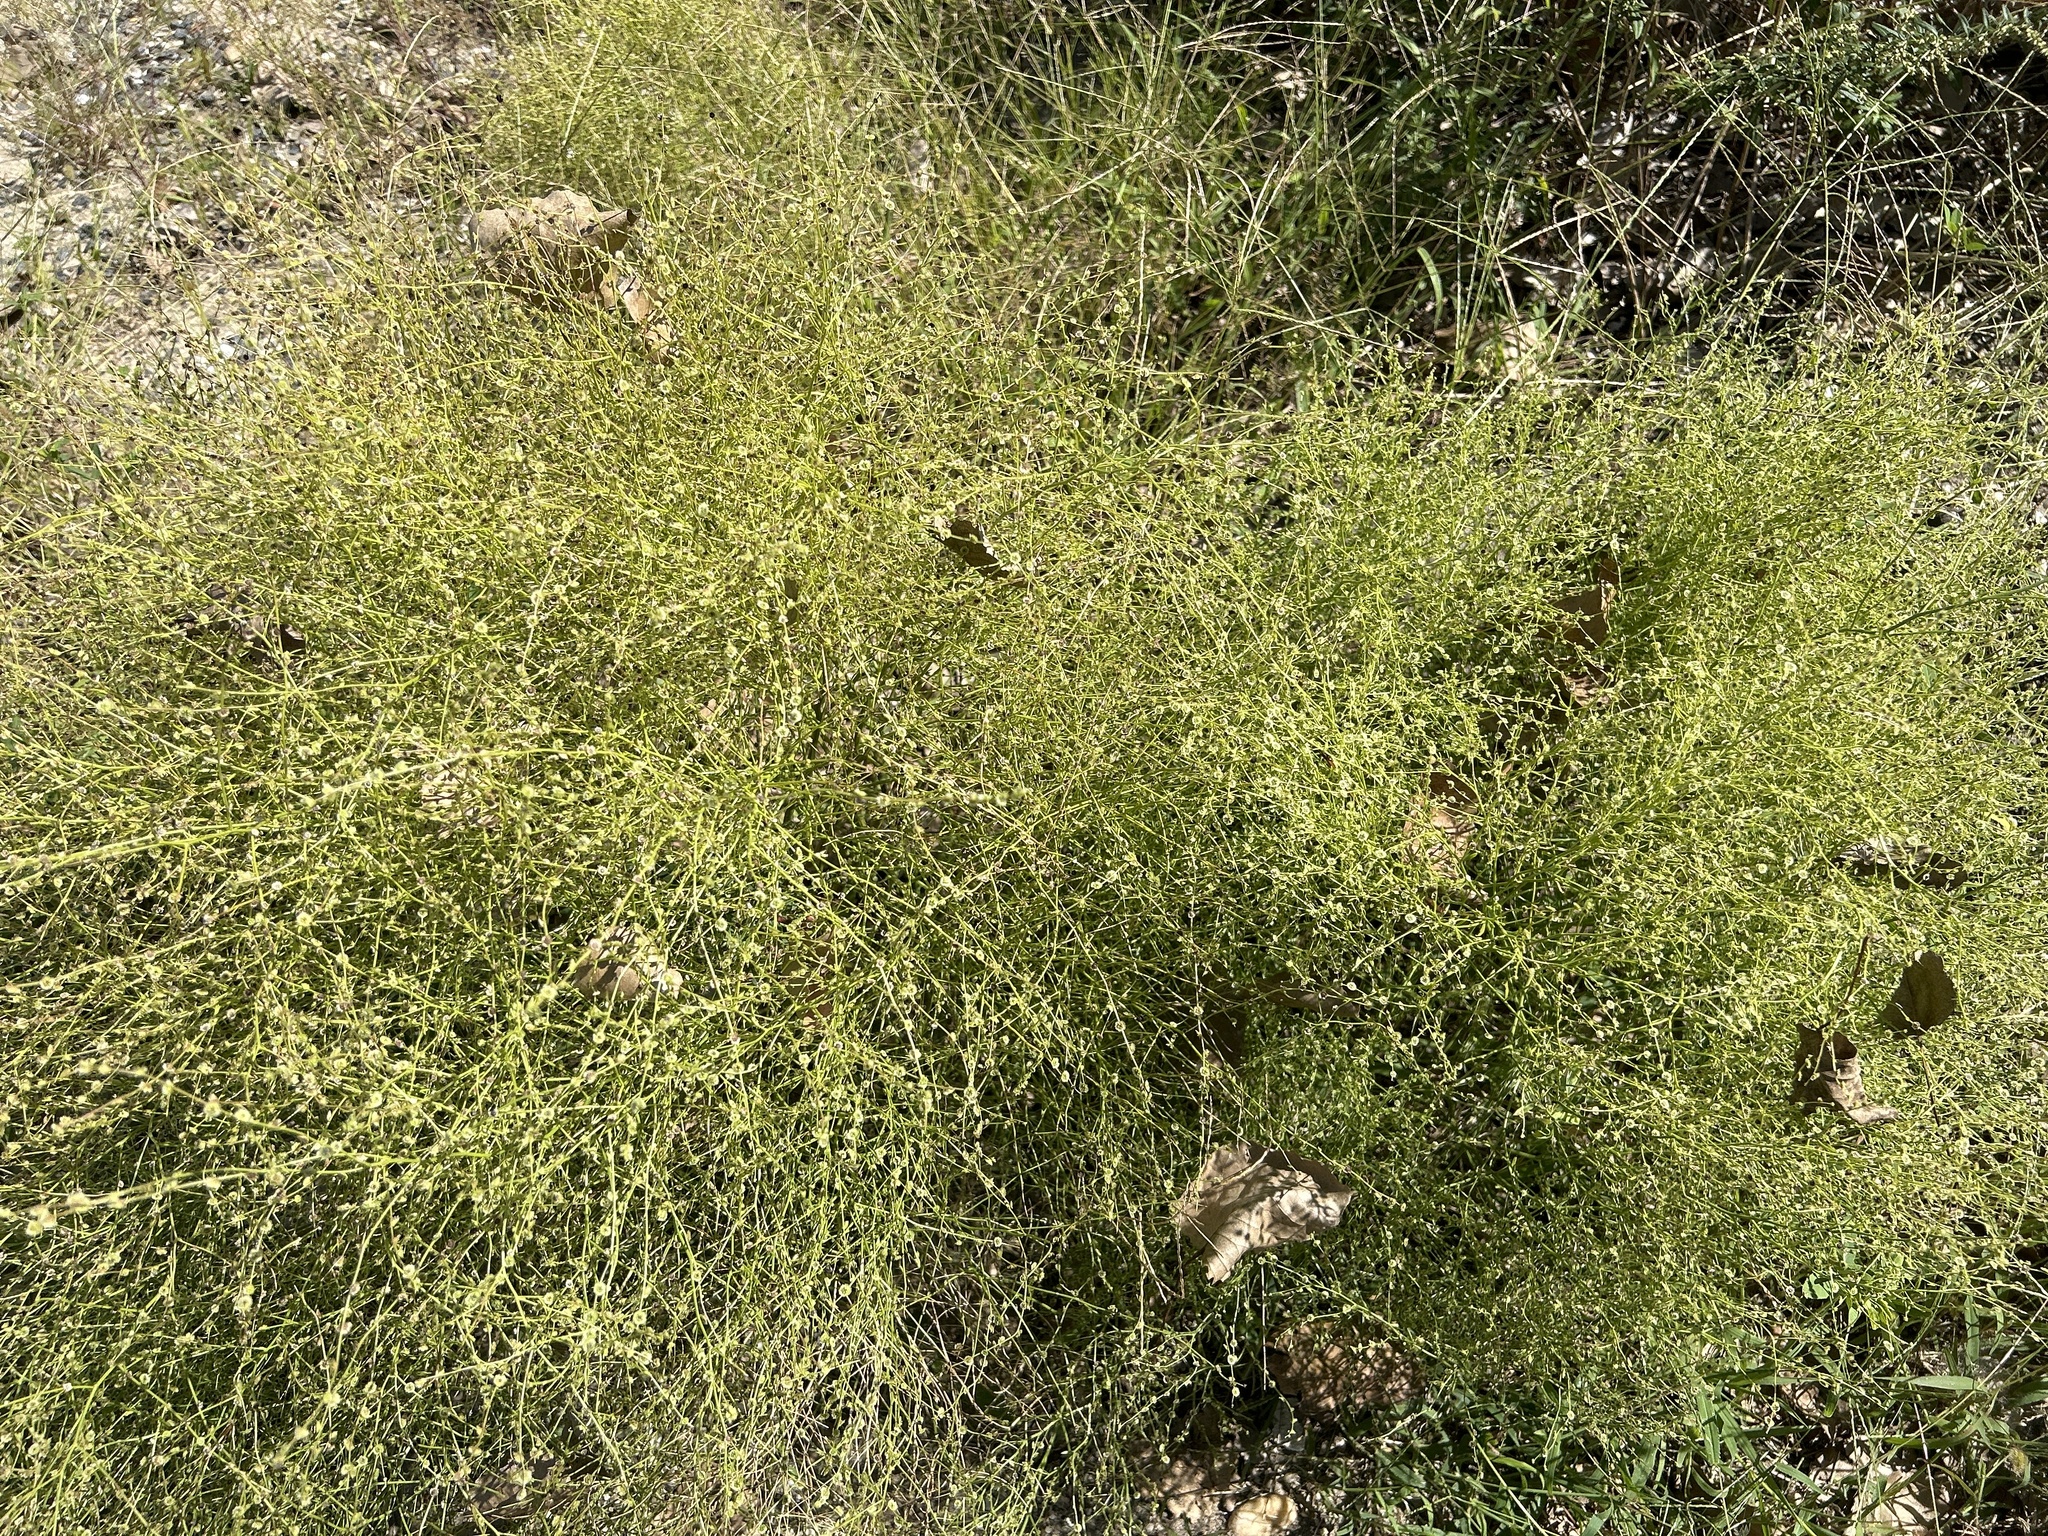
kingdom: Plantae
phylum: Tracheophyta
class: Magnoliopsida
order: Caryophyllales
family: Amaranthaceae
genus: Dysphania
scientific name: Dysphania atriplicifolia
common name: Plains tumbleweed
